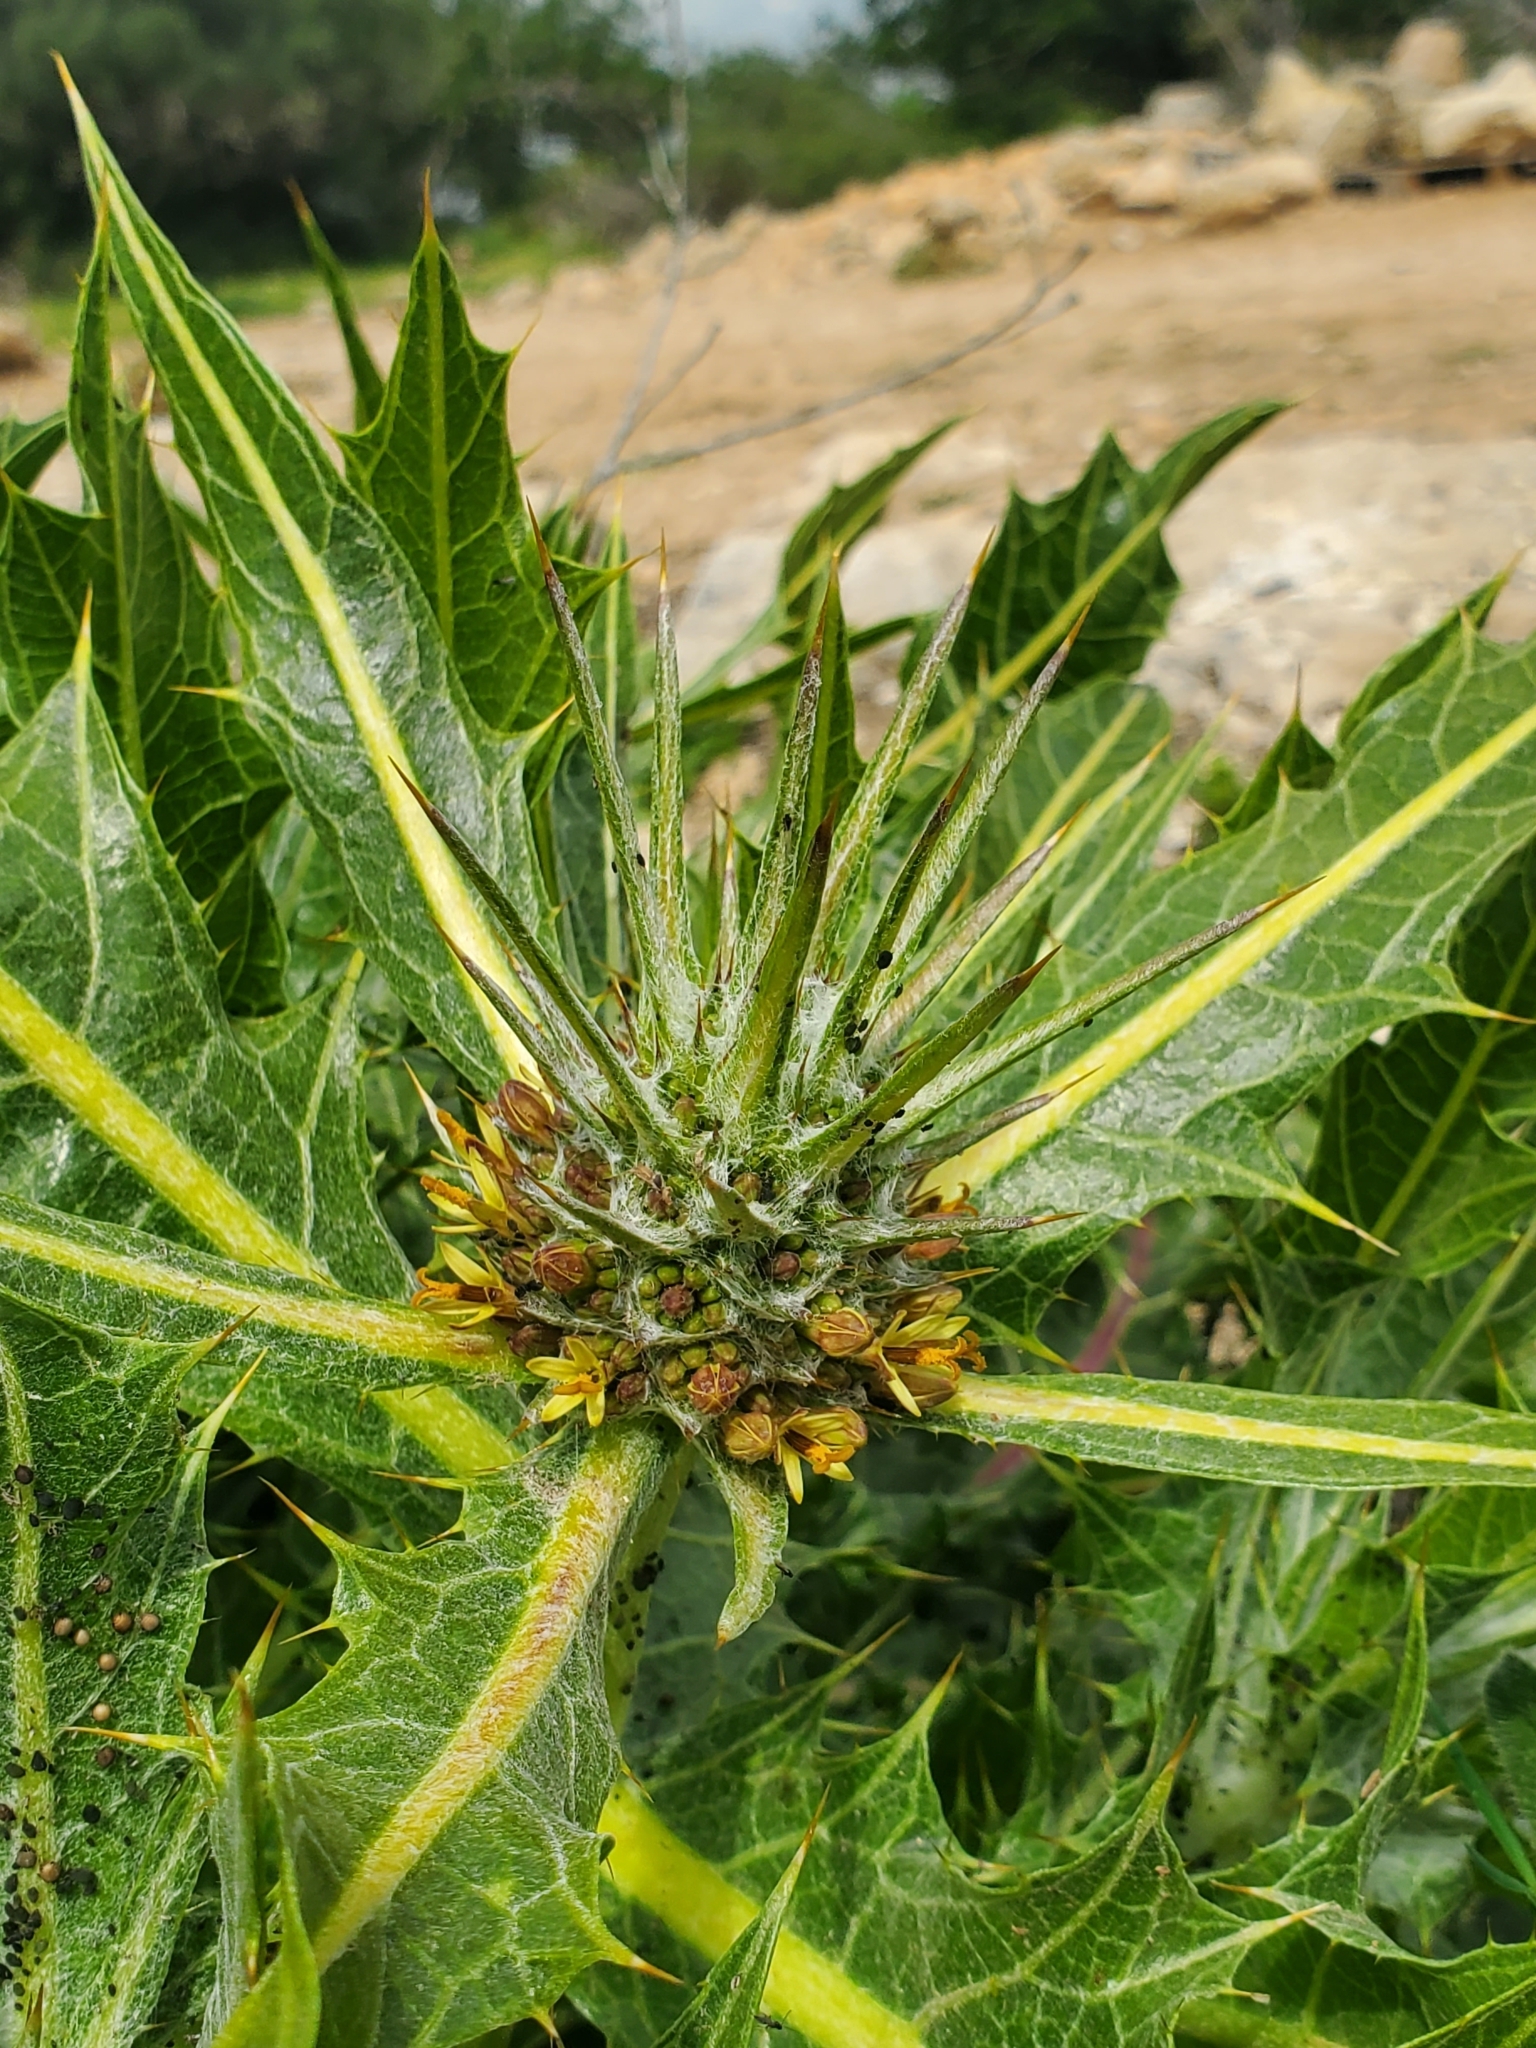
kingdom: Plantae
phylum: Tracheophyta
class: Magnoliopsida
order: Asterales
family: Asteraceae
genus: Gundelia
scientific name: Gundelia tournefortii
